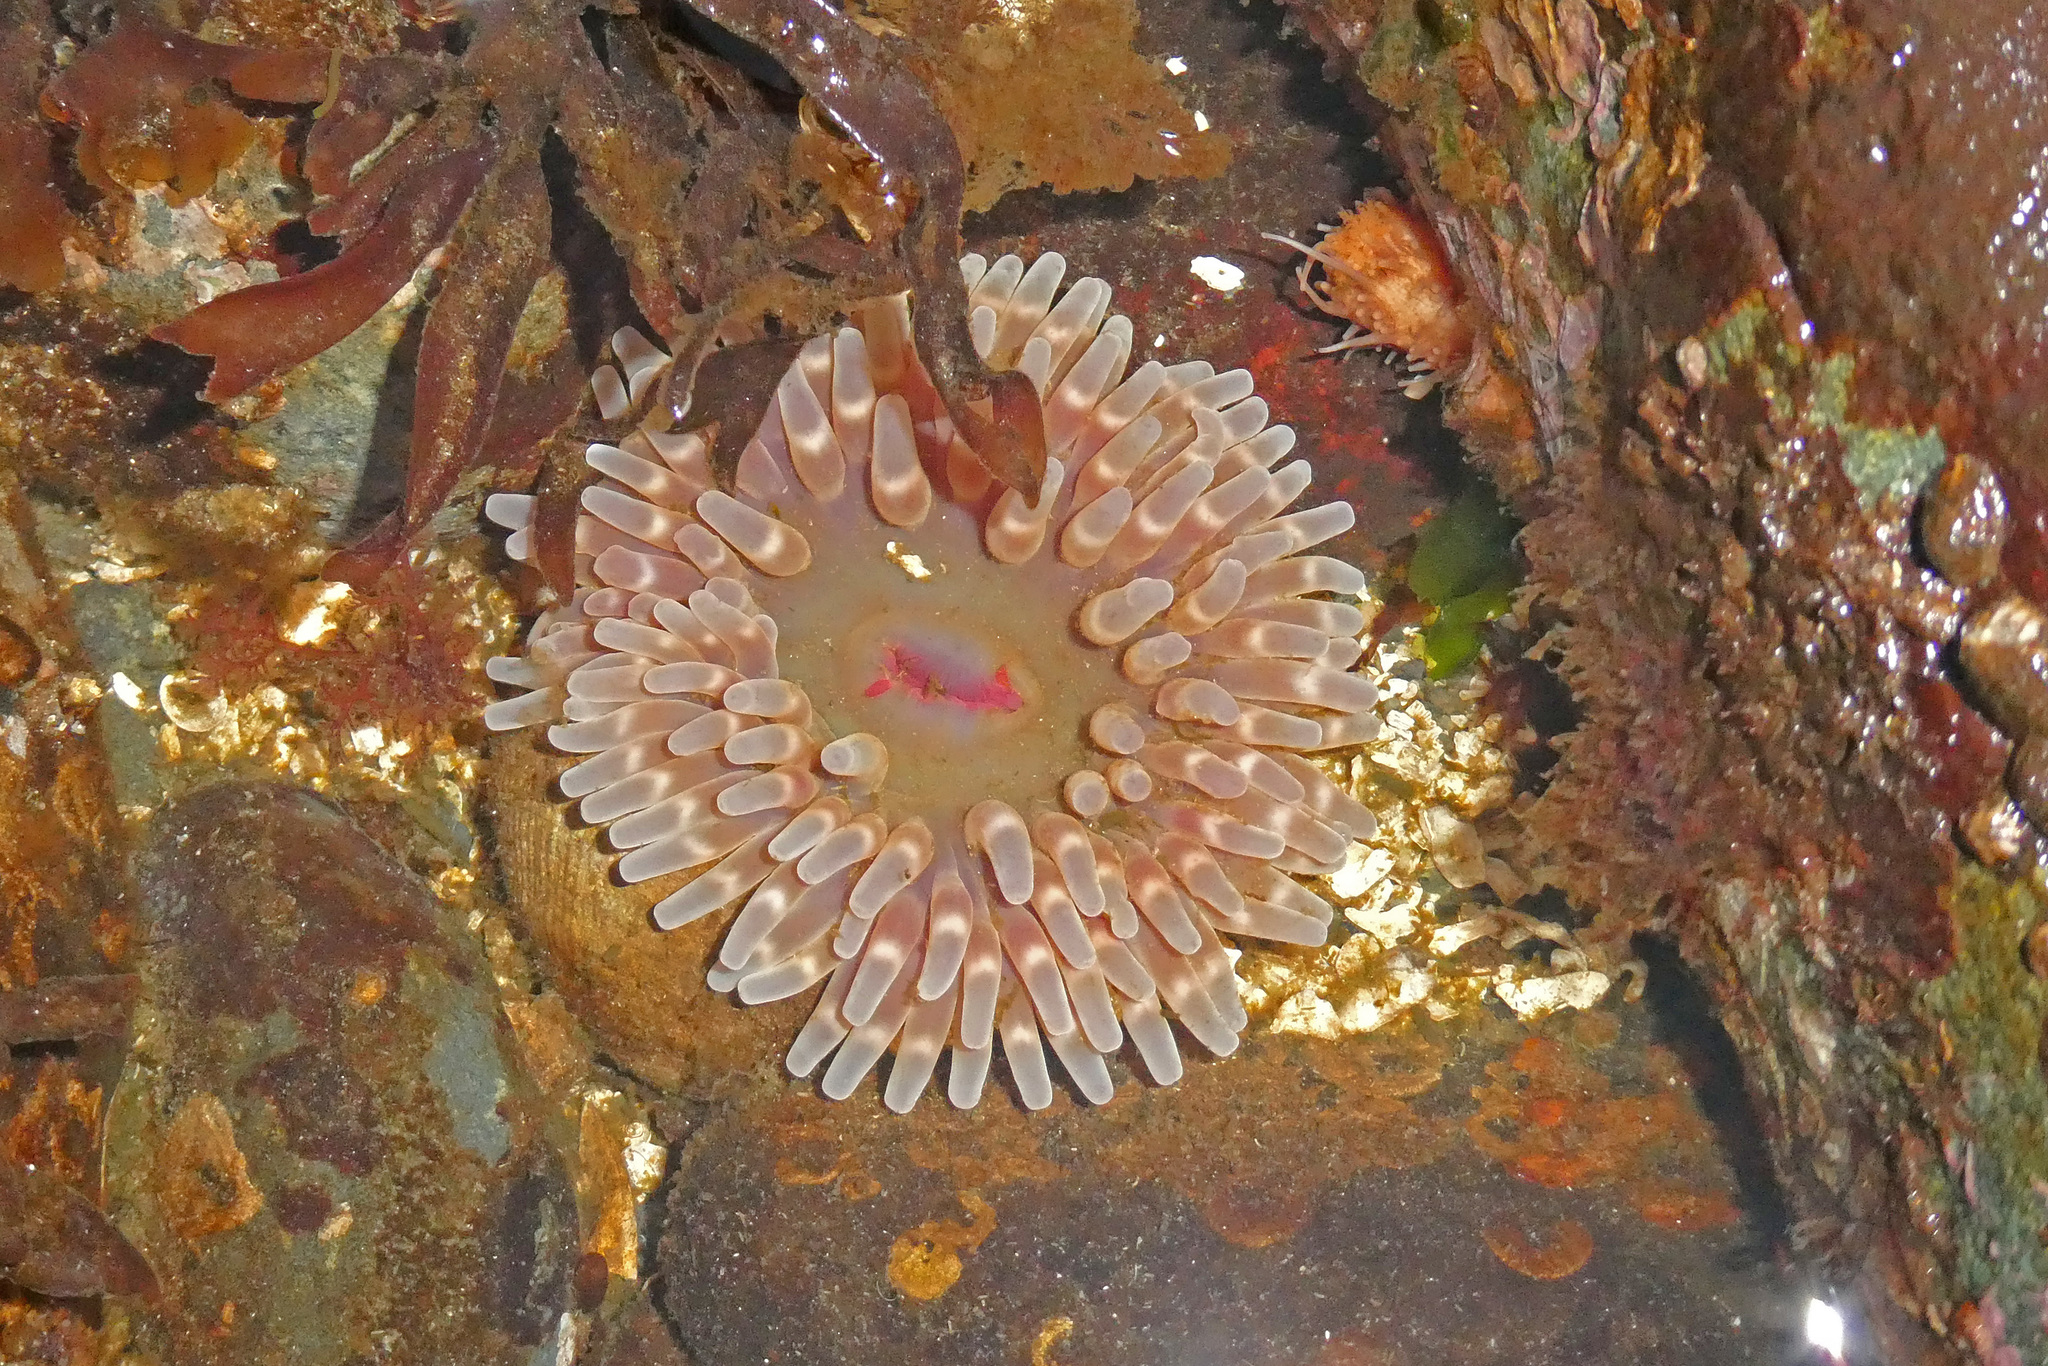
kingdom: Animalia
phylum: Cnidaria
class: Anthozoa
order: Actiniaria
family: Actiniidae
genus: Urticina
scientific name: Urticina clandestina
